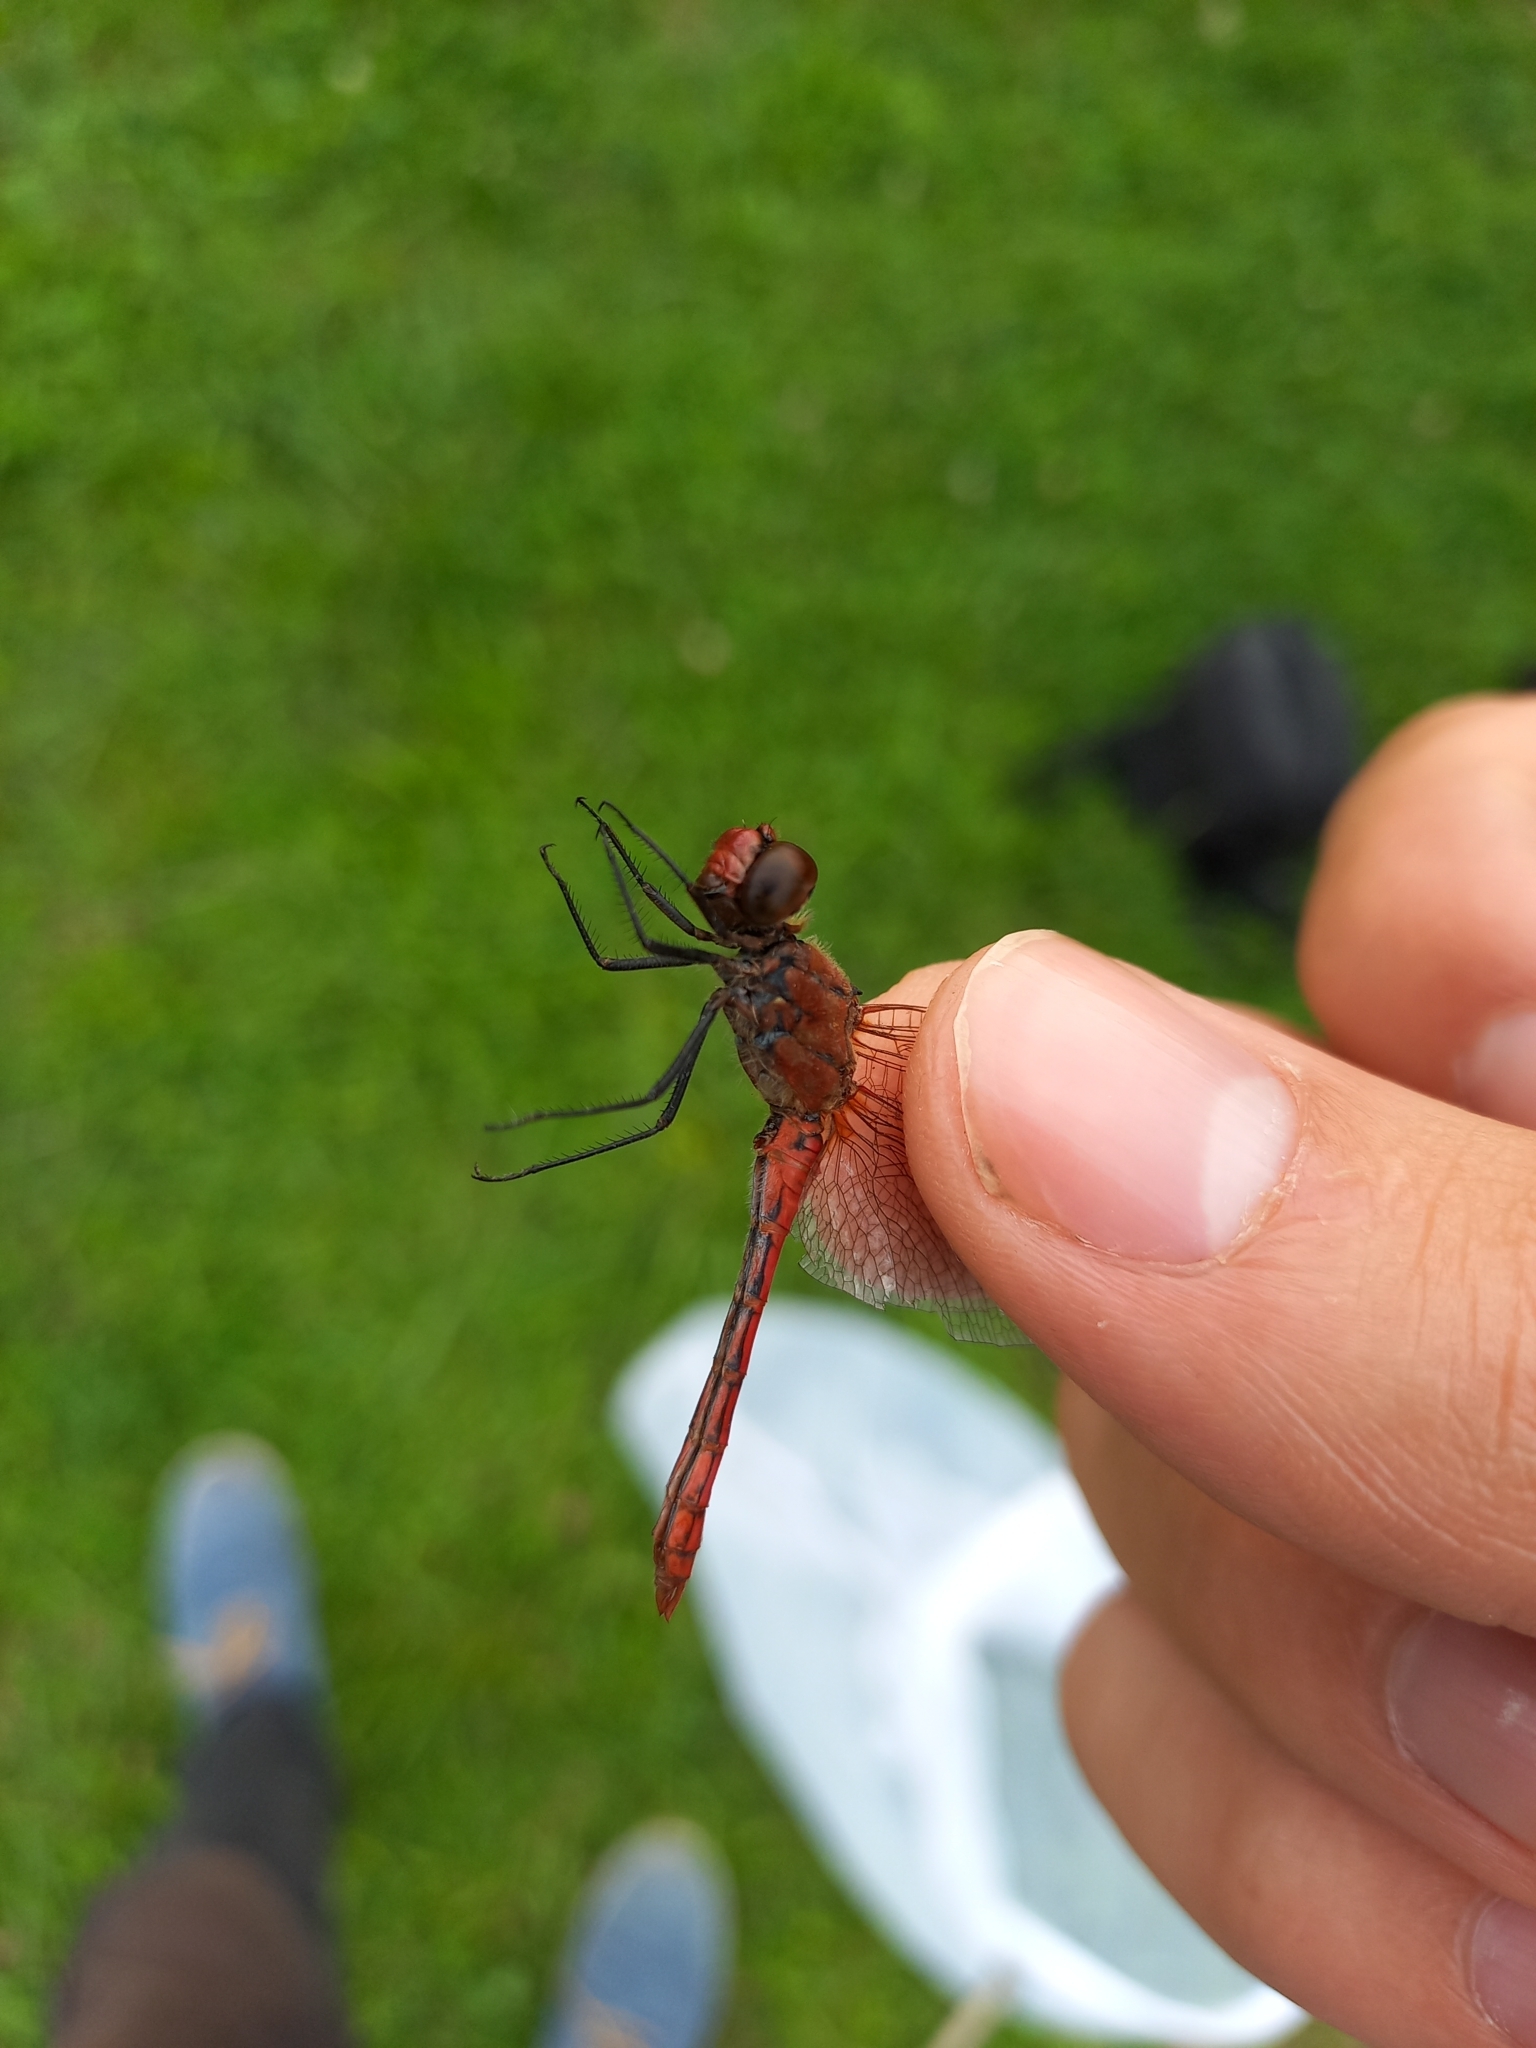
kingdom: Animalia
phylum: Arthropoda
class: Insecta
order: Odonata
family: Libellulidae
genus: Sympetrum
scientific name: Sympetrum sanguineum
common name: Ruddy darter
